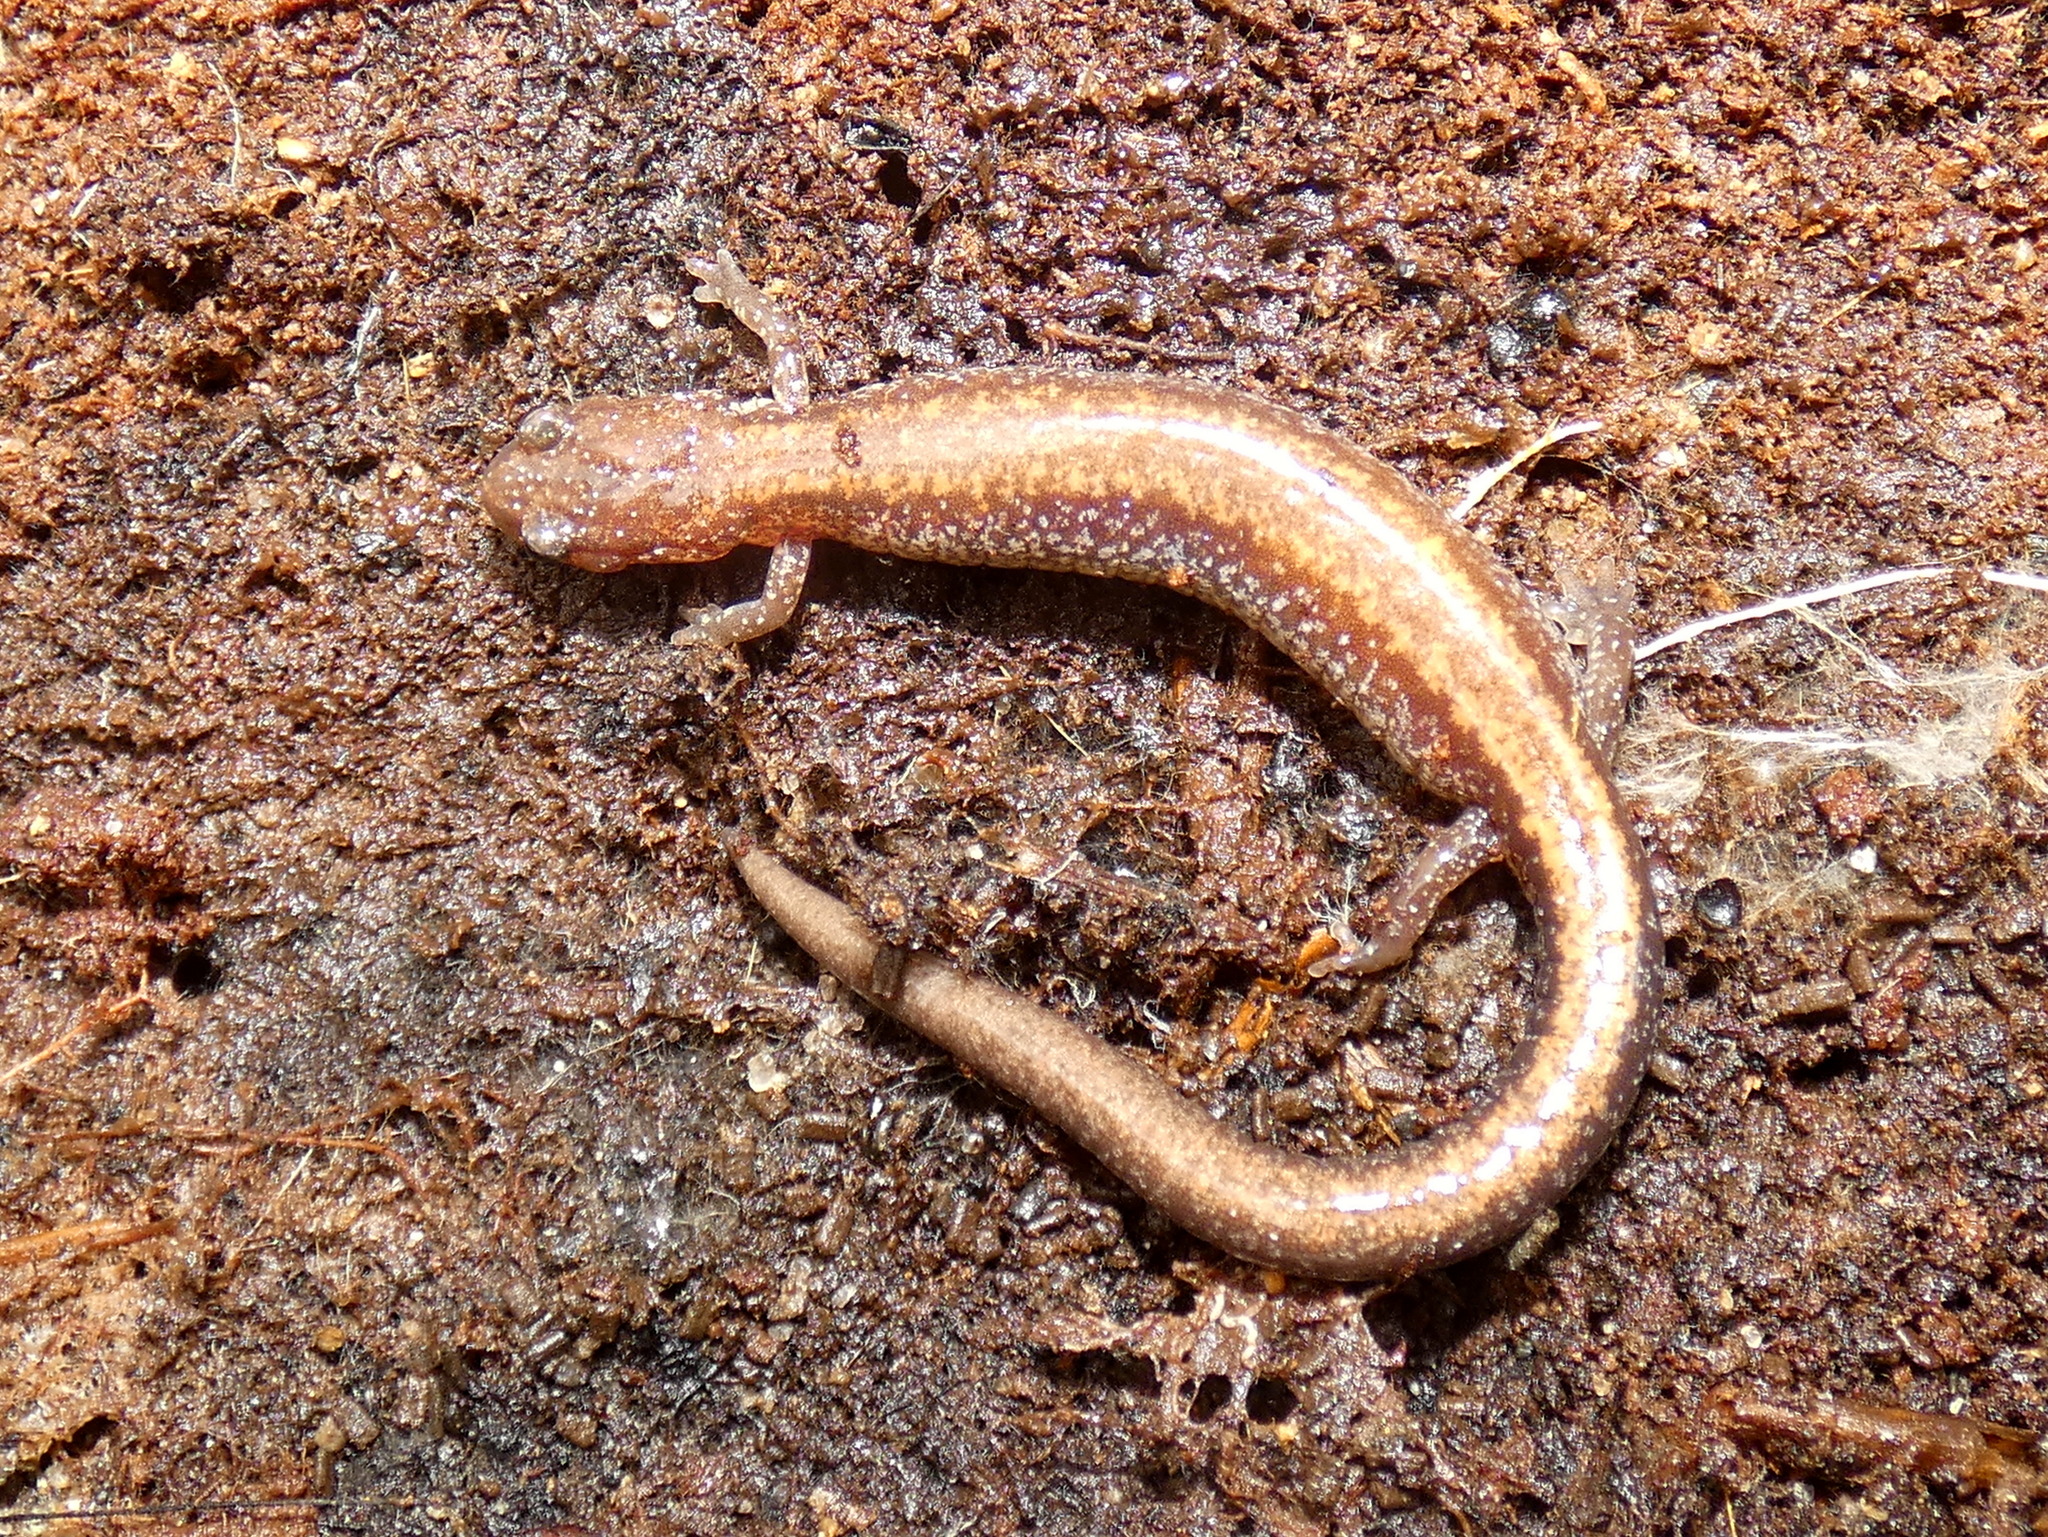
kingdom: Animalia
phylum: Chordata
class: Amphibia
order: Caudata
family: Plethodontidae
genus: Plethodon
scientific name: Plethodon cinereus
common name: Redback salamander
